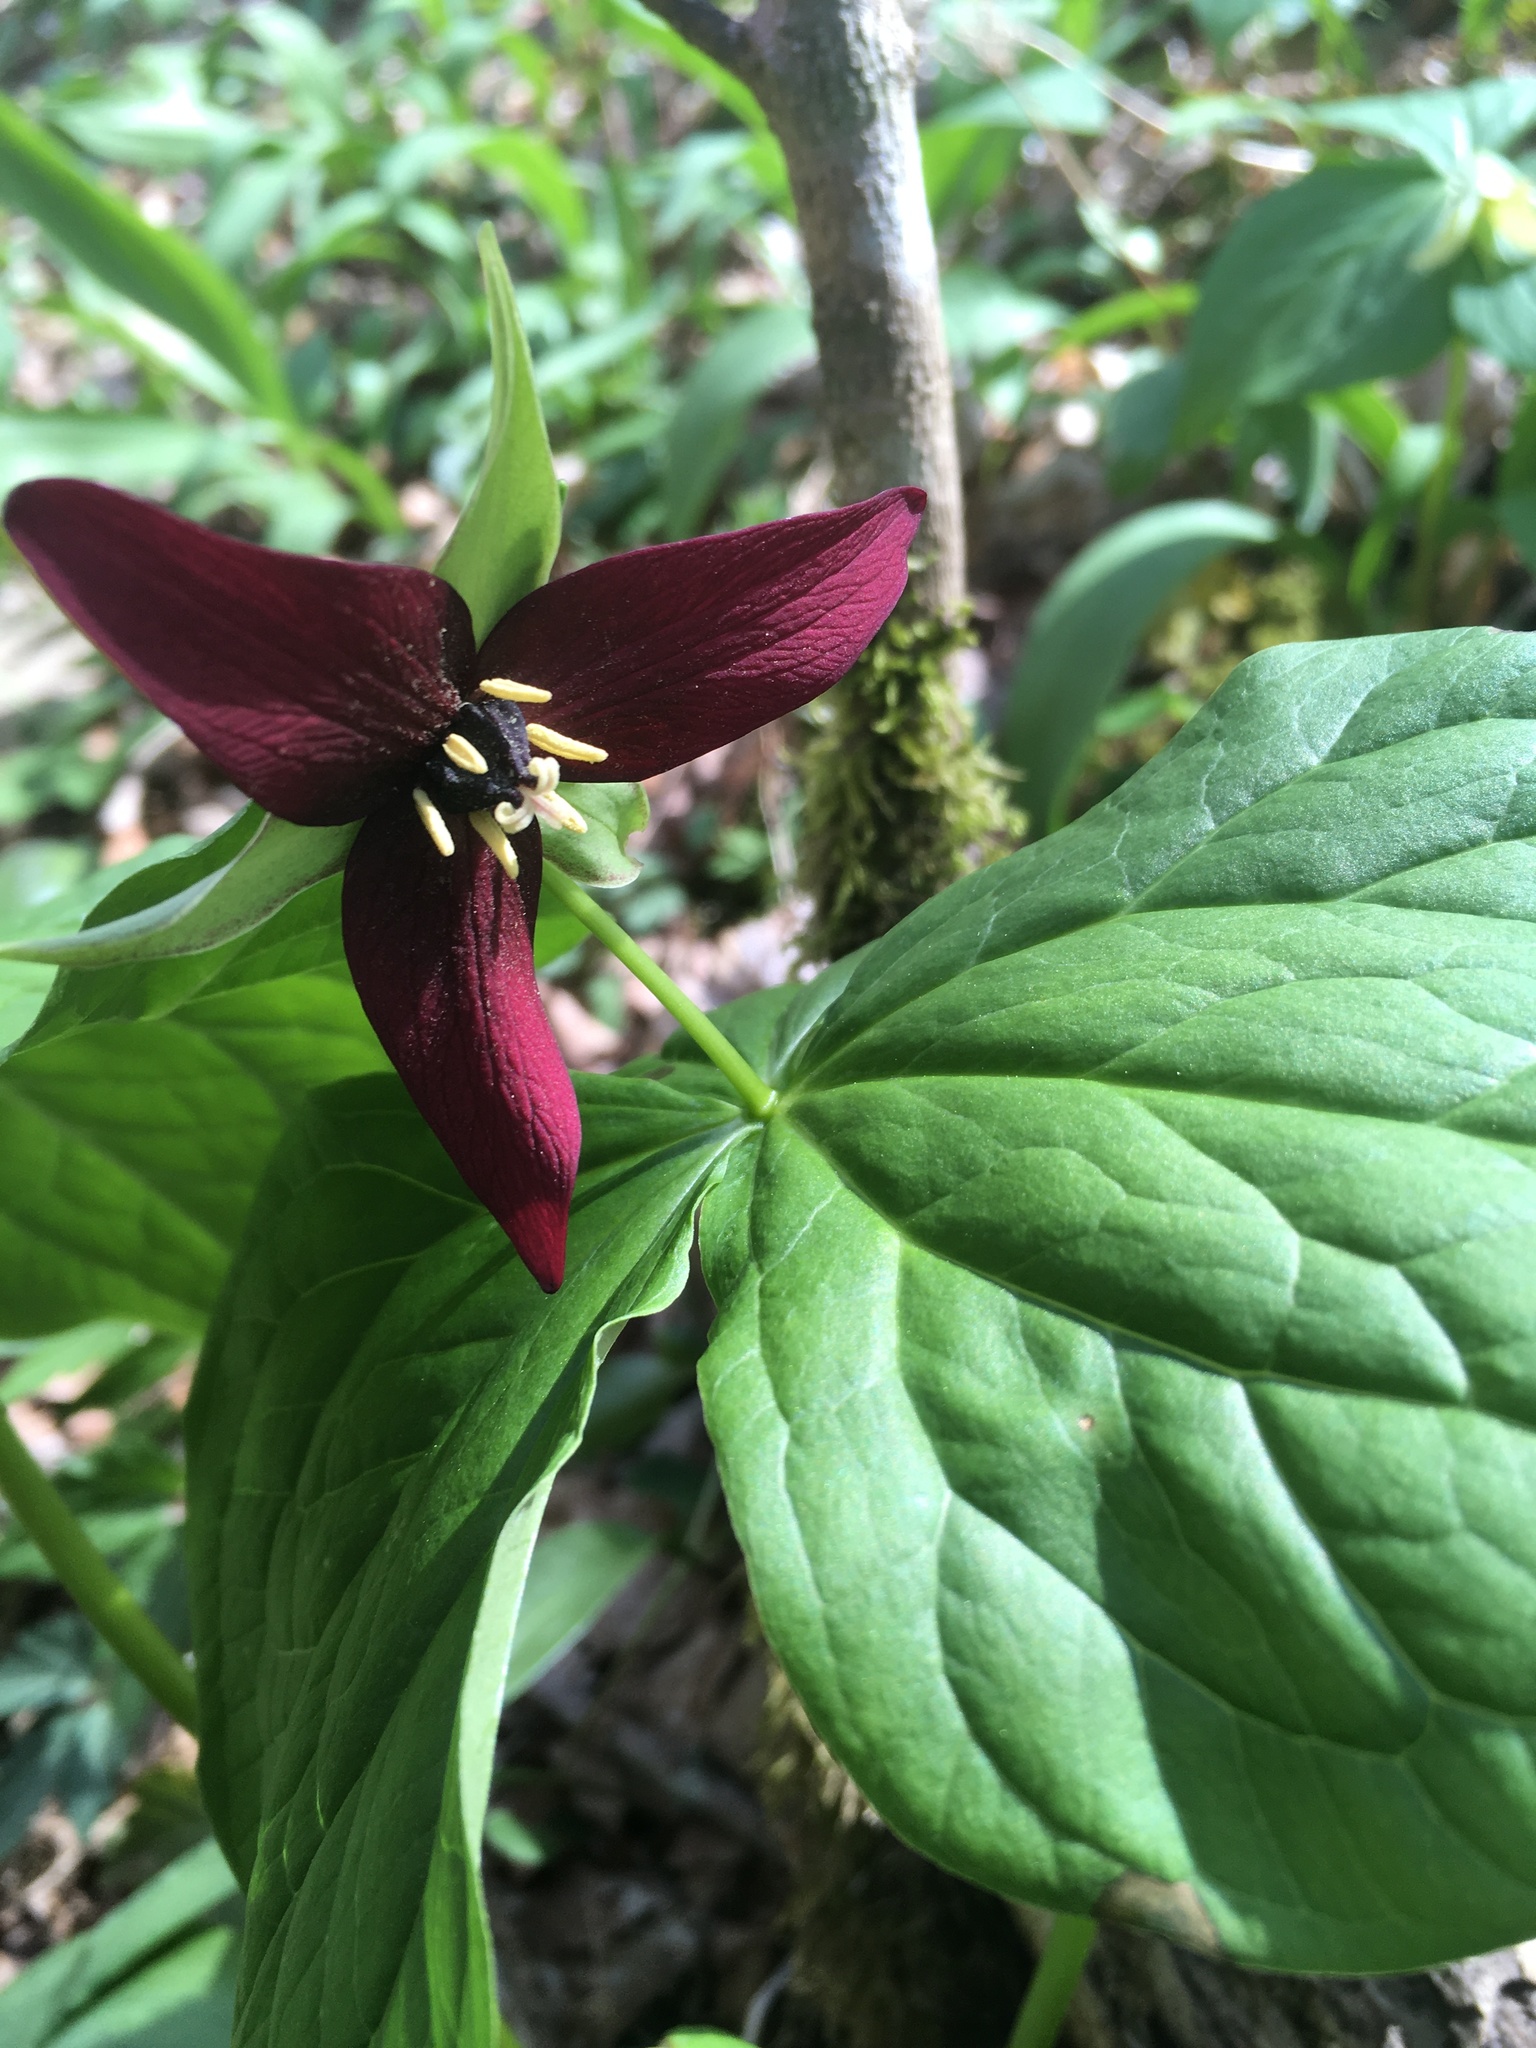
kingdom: Plantae
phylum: Tracheophyta
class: Liliopsida
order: Liliales
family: Melanthiaceae
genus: Trillium
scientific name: Trillium erectum
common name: Purple trillium
